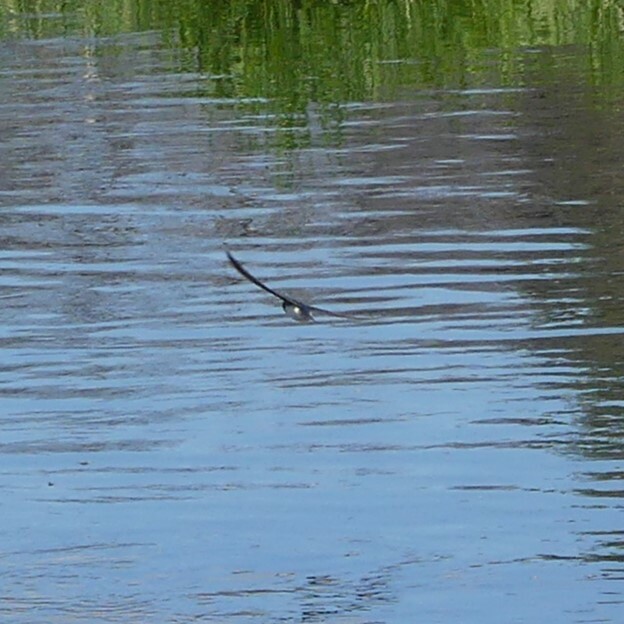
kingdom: Animalia
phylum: Chordata
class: Aves
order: Passeriformes
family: Hirundinidae
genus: Tachycineta
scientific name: Tachycineta bicolor
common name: Tree swallow
